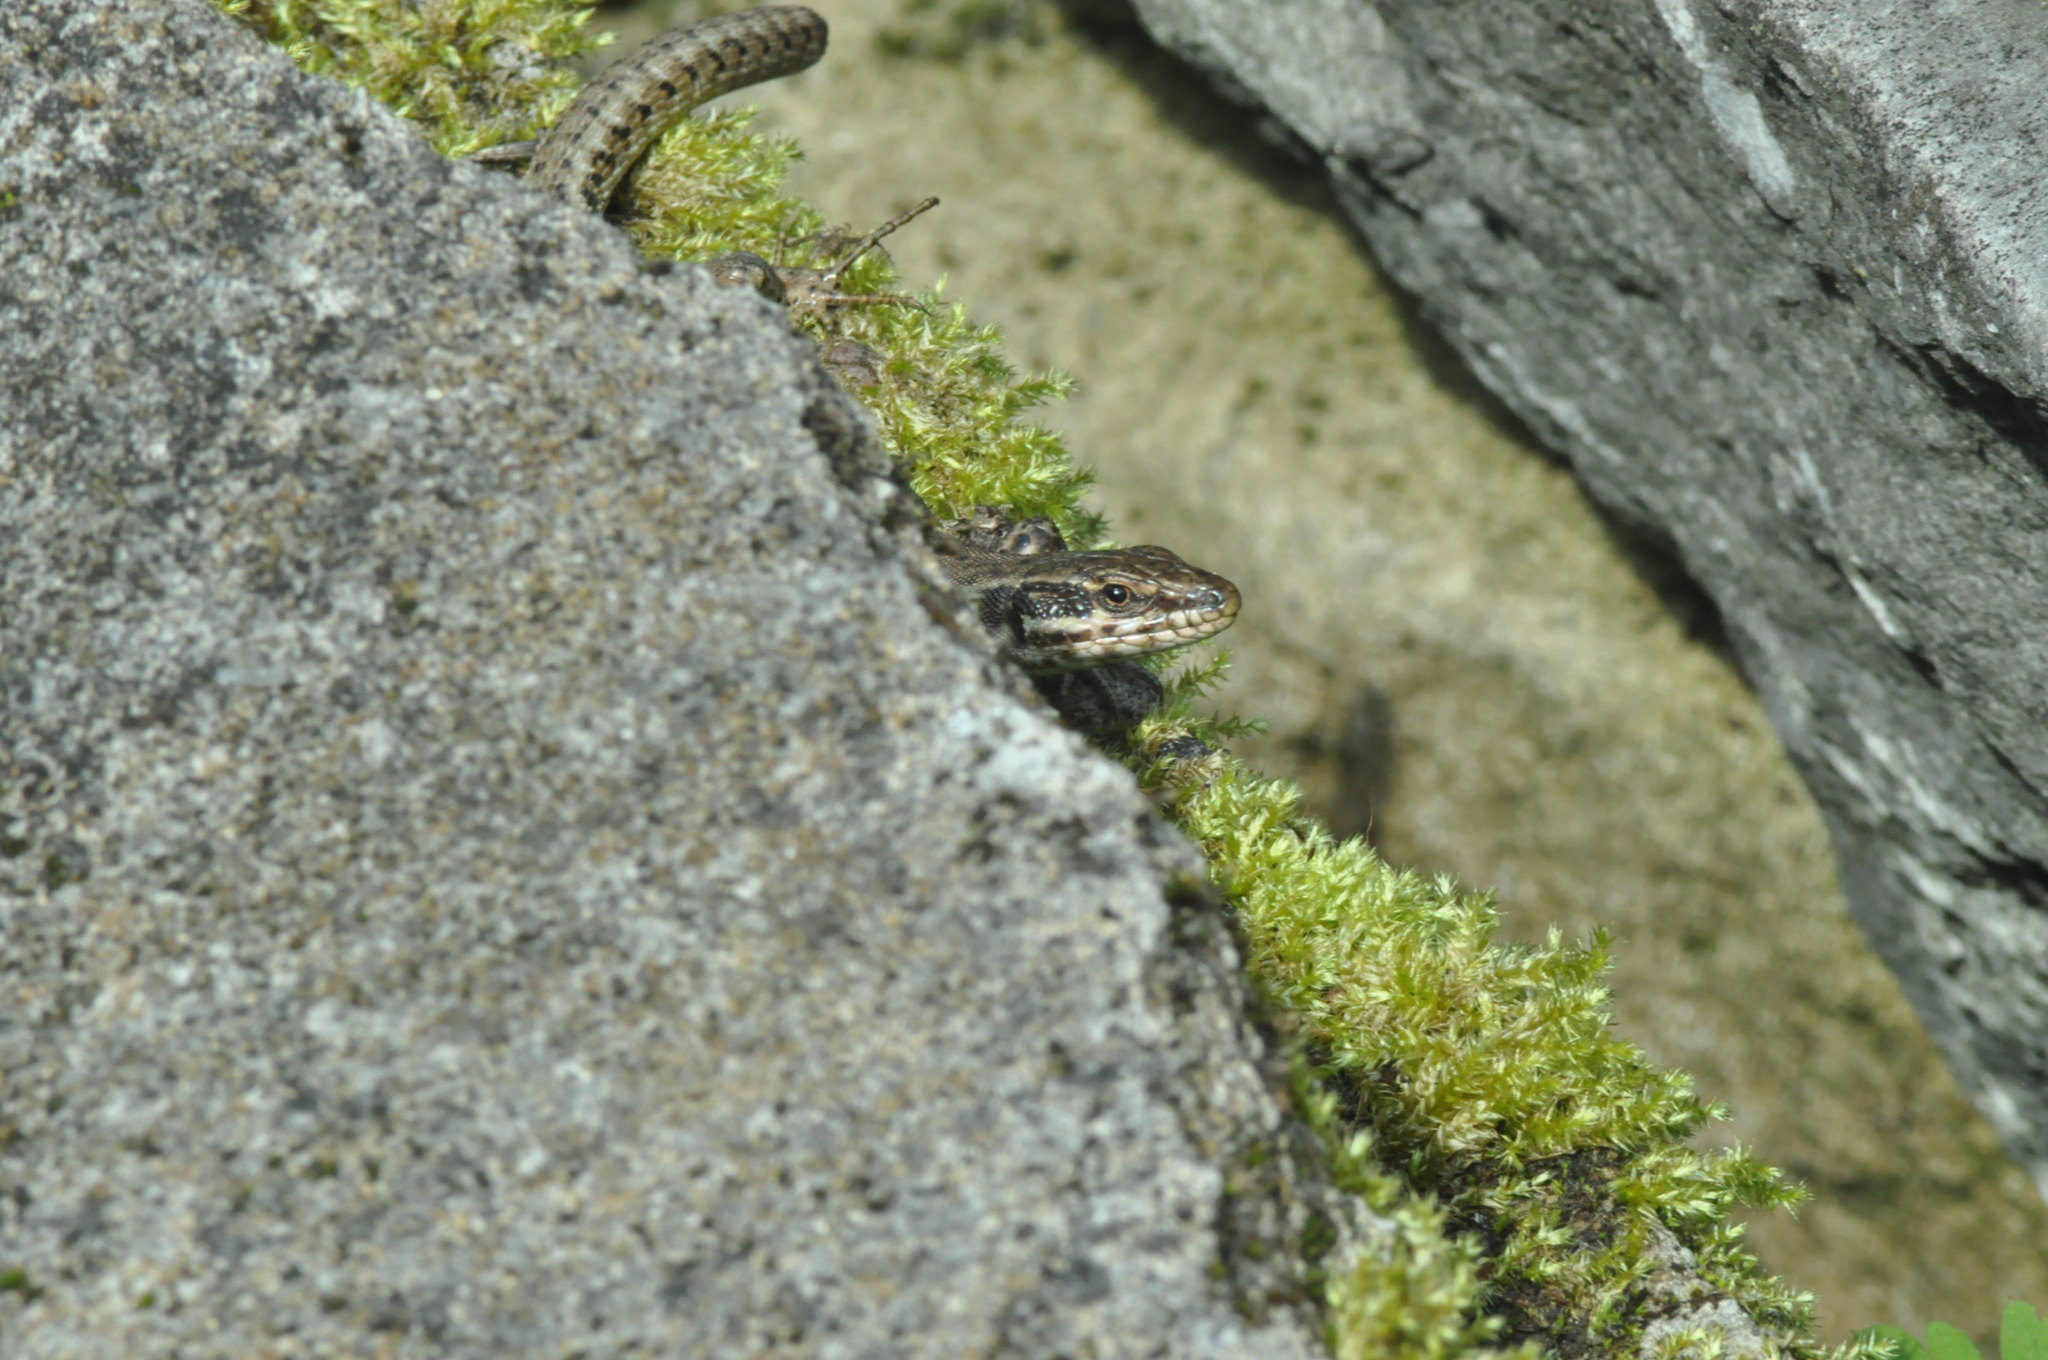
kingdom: Animalia
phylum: Chordata
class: Squamata
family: Lacertidae
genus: Podarcis
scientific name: Podarcis muralis
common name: Common wall lizard
